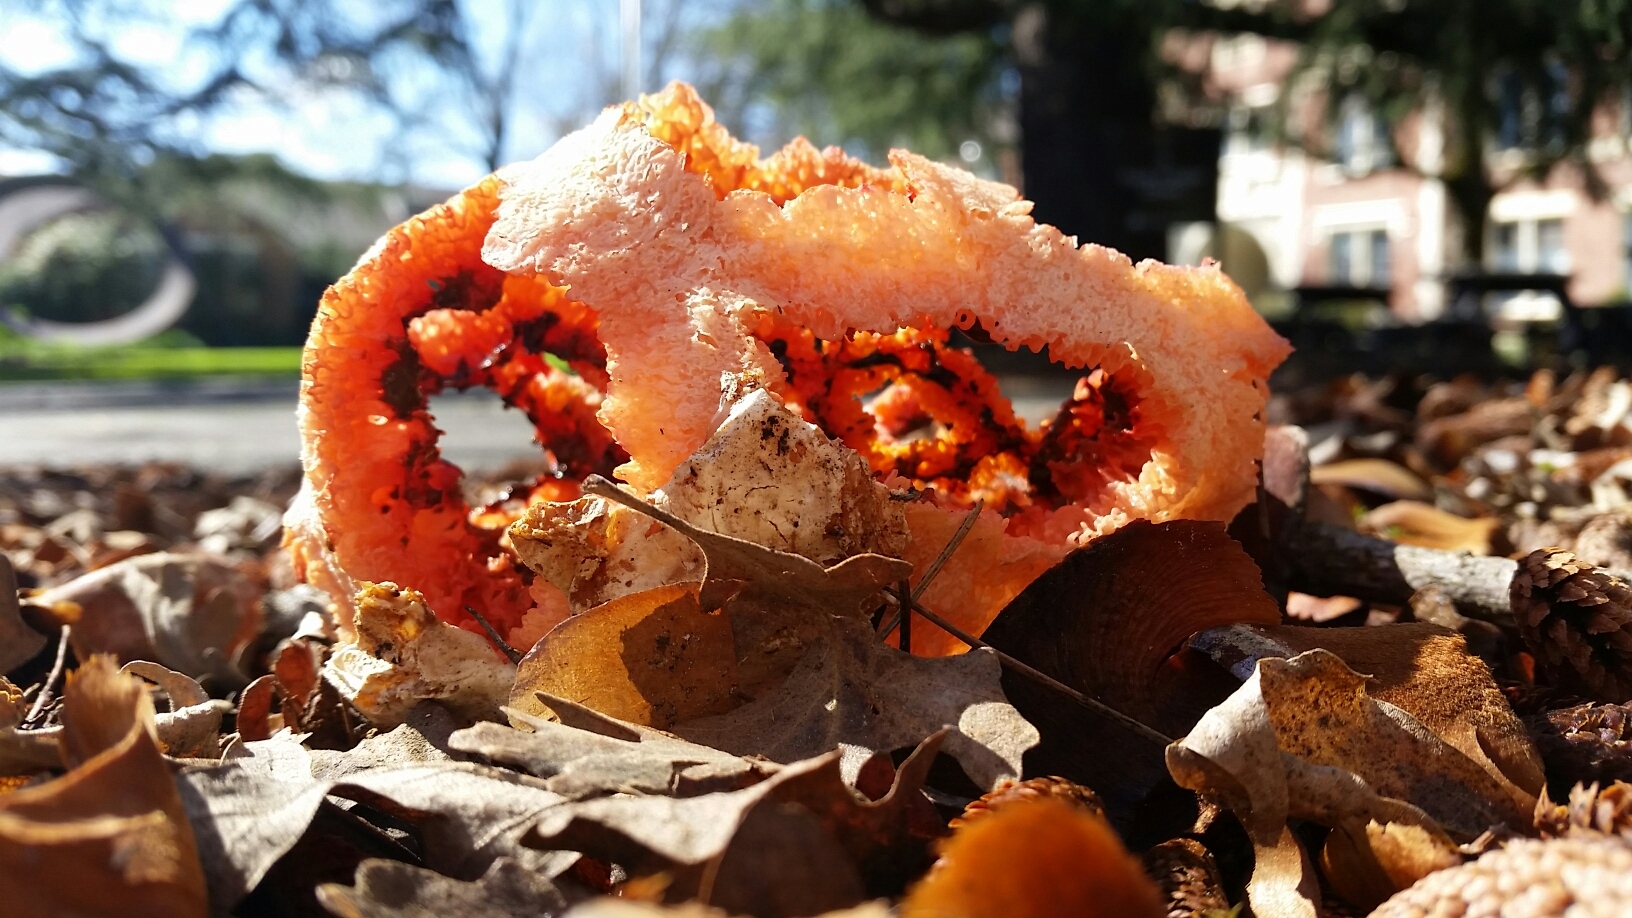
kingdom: Fungi
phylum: Basidiomycota
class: Agaricomycetes
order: Phallales
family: Phallaceae
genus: Clathrus
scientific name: Clathrus ruber
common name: Red cage
